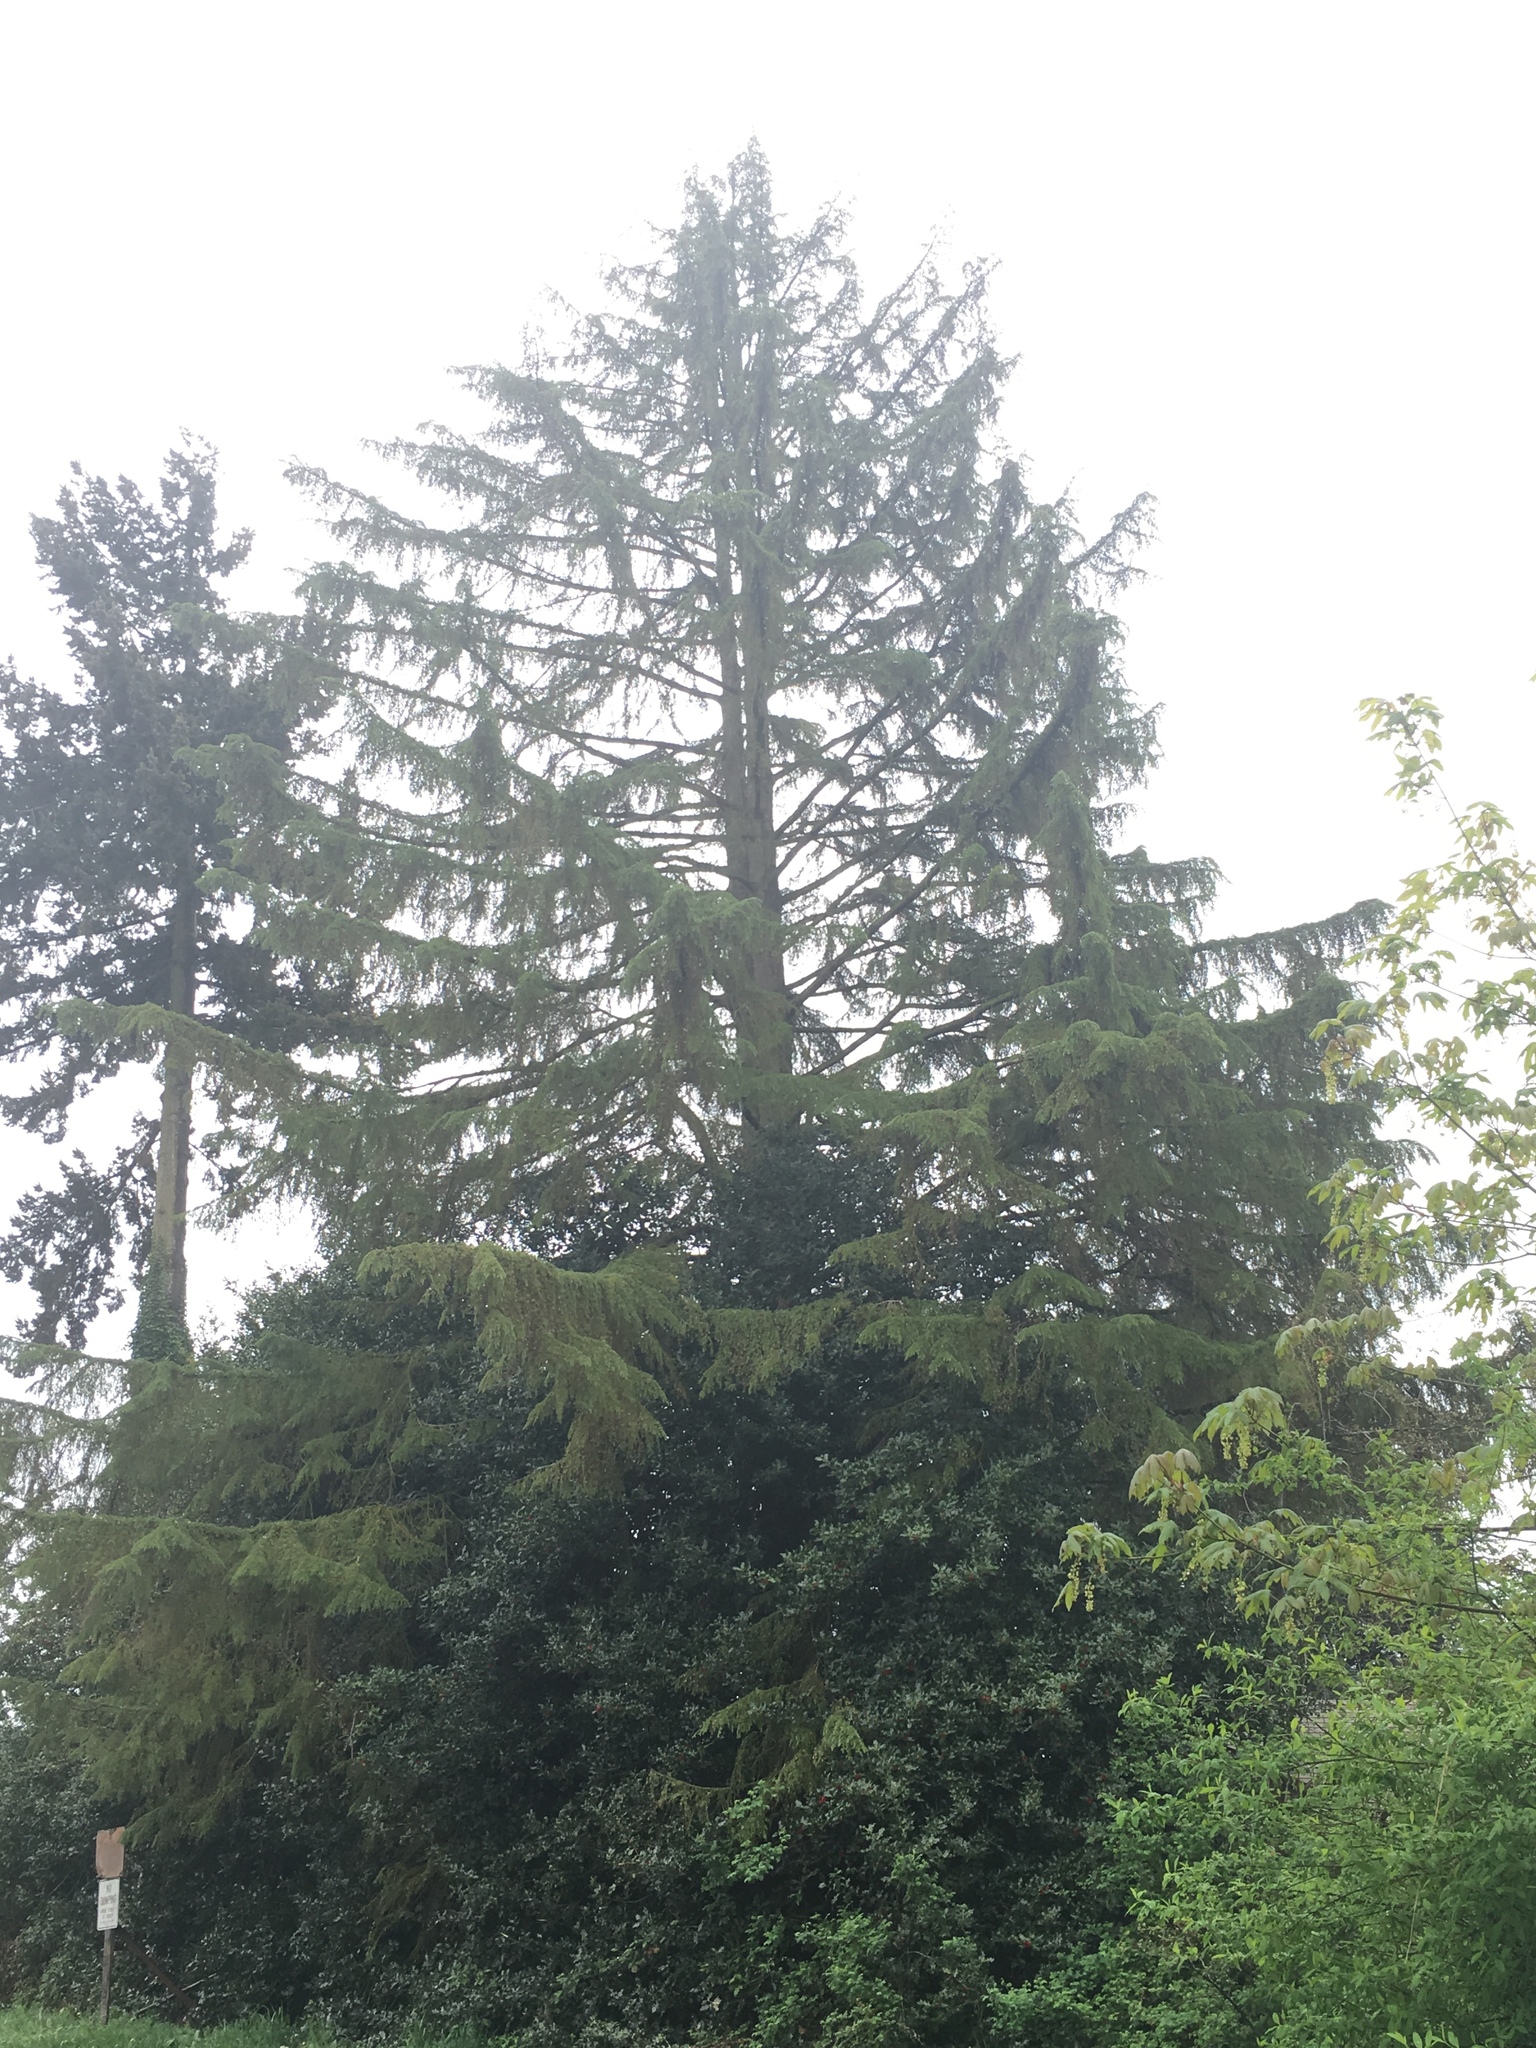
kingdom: Plantae
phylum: Tracheophyta
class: Pinopsida
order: Pinales
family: Pinaceae
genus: Tsuga
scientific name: Tsuga heterophylla
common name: Western hemlock
